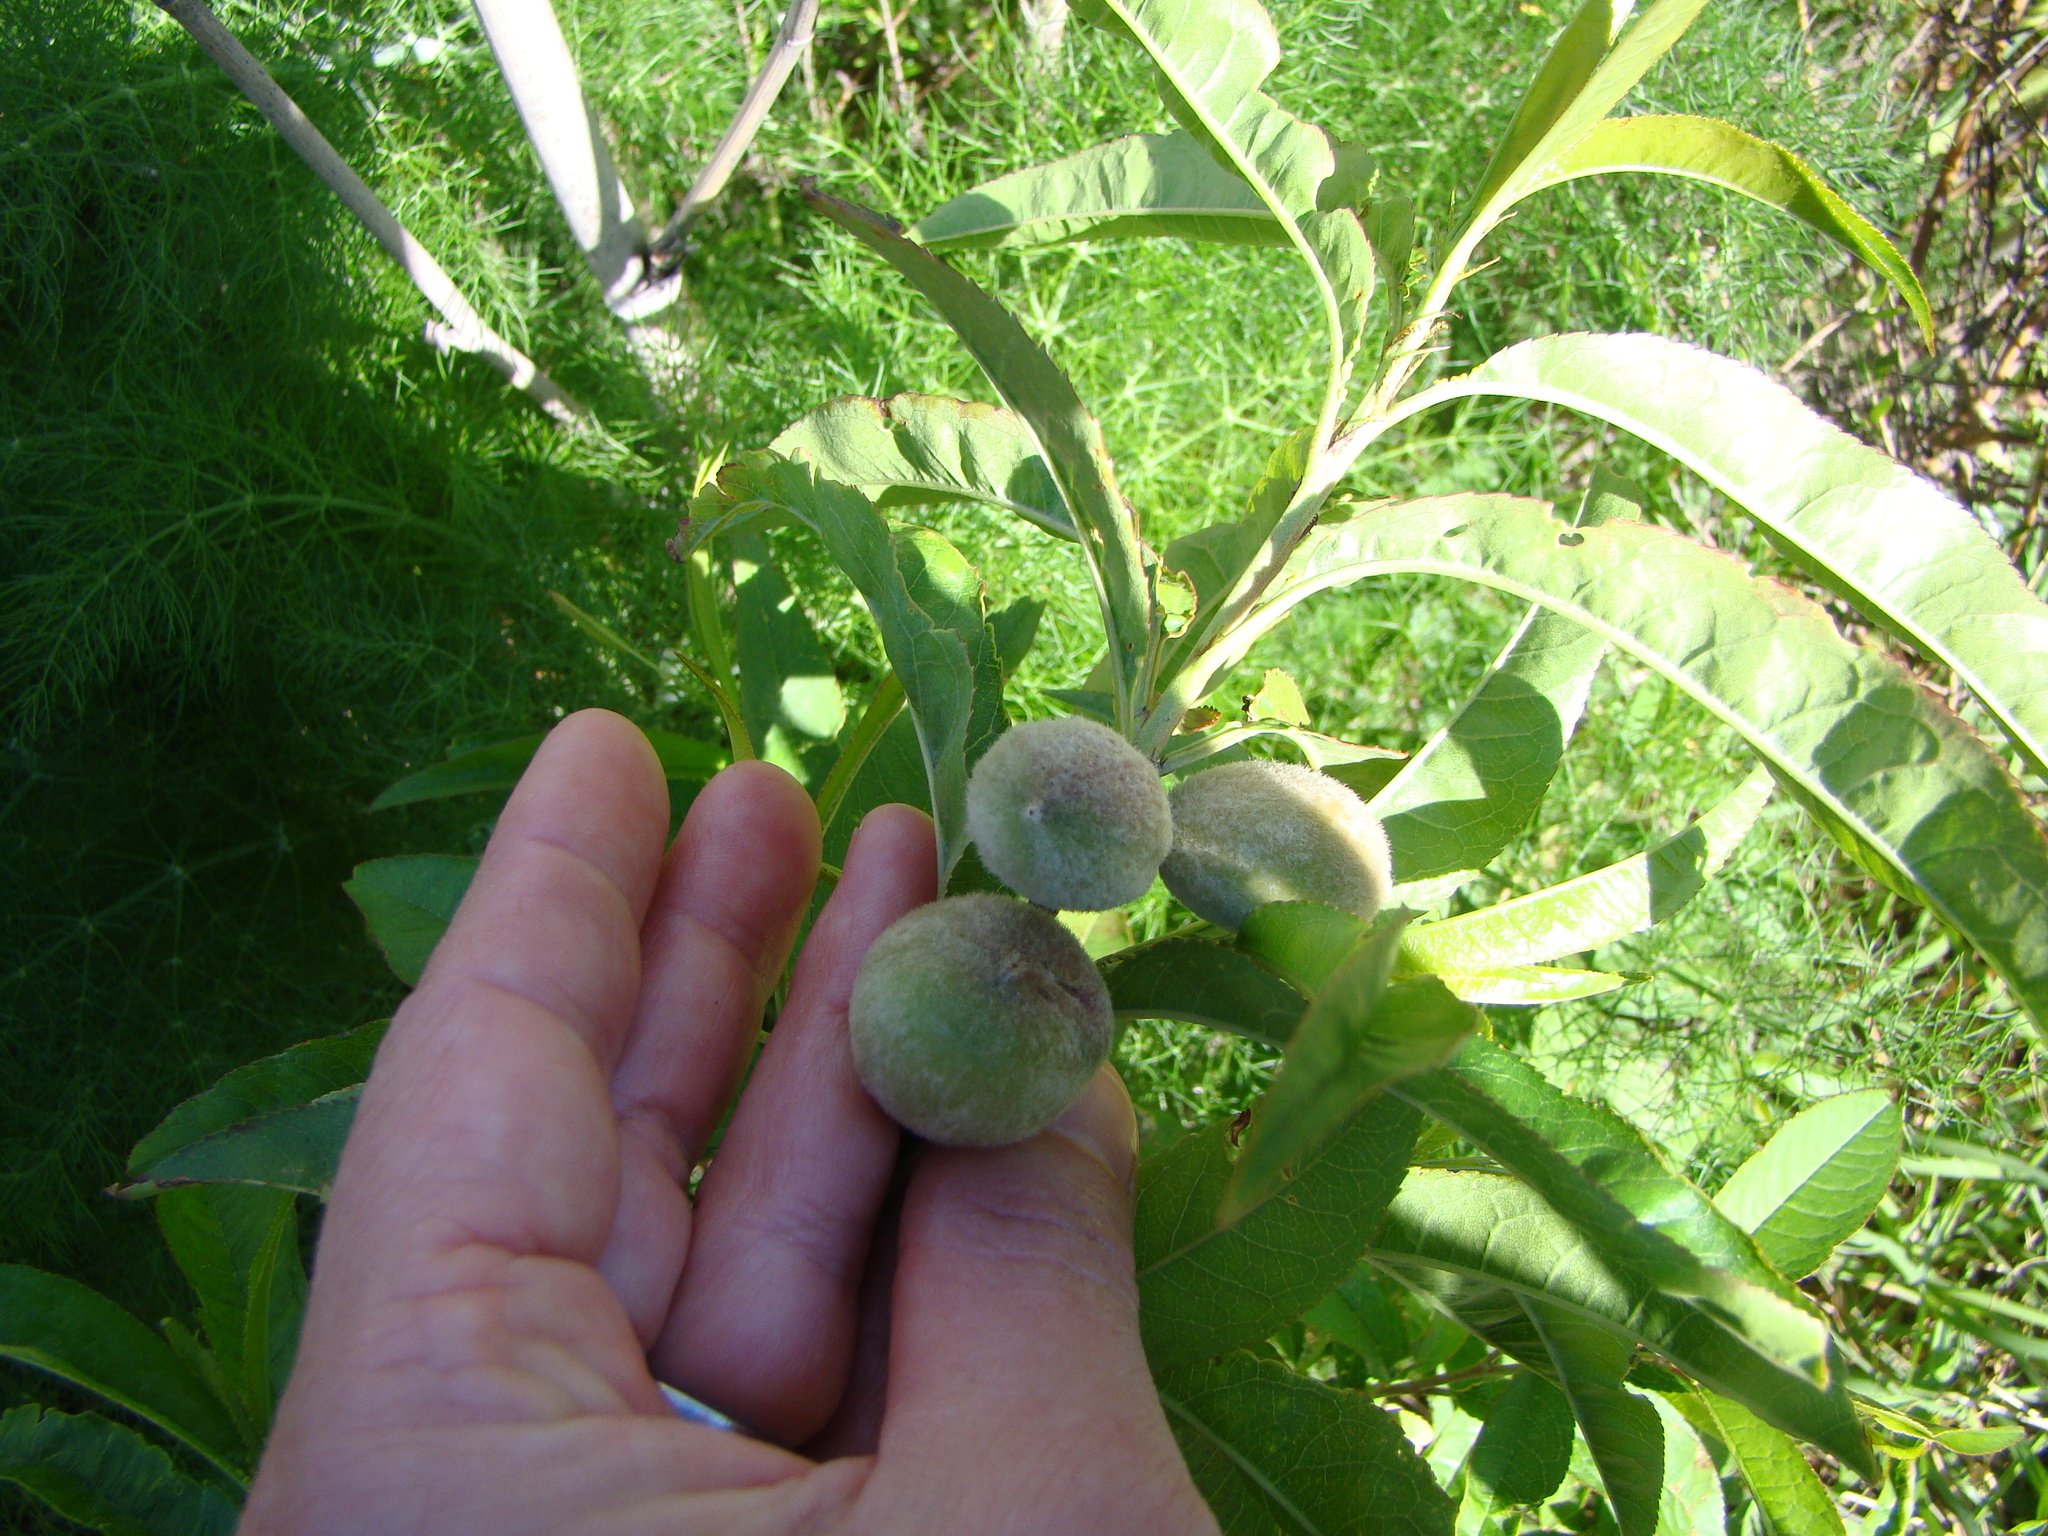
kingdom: Plantae
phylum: Tracheophyta
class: Magnoliopsida
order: Rosales
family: Rosaceae
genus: Prunus
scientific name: Prunus persica
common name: Peach
